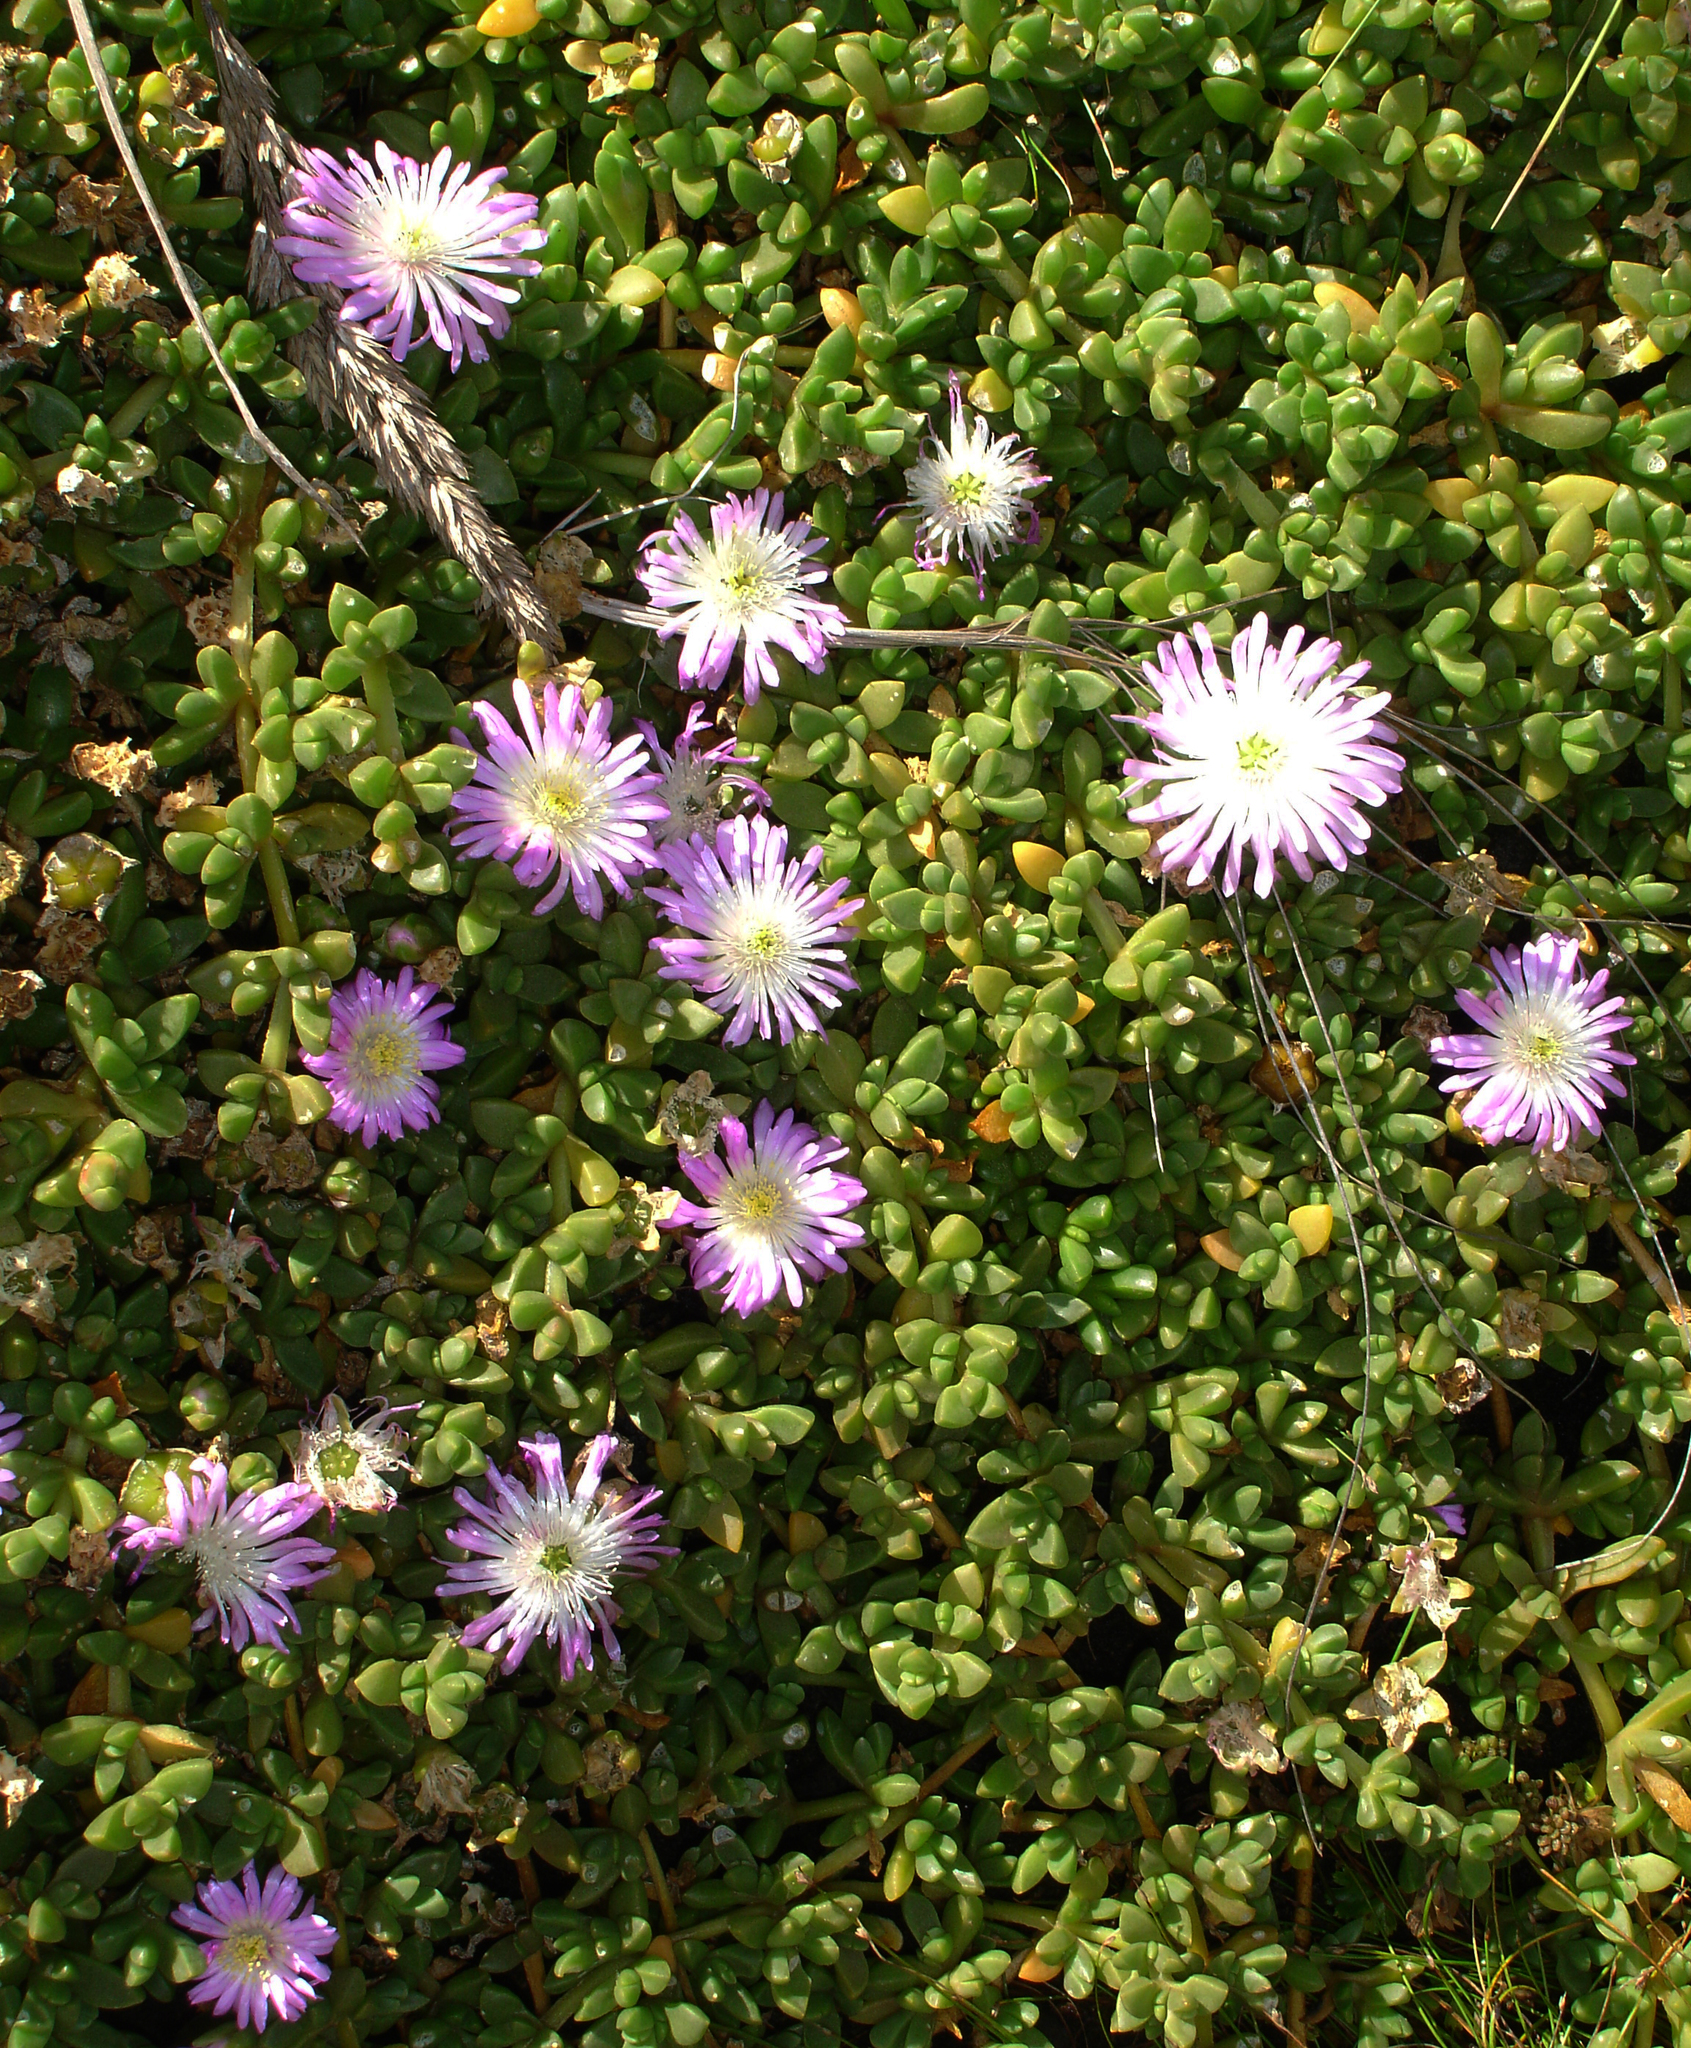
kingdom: Plantae
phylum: Tracheophyta
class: Magnoliopsida
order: Caryophyllales
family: Aizoaceae
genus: Disphyma
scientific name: Disphyma papillatum
